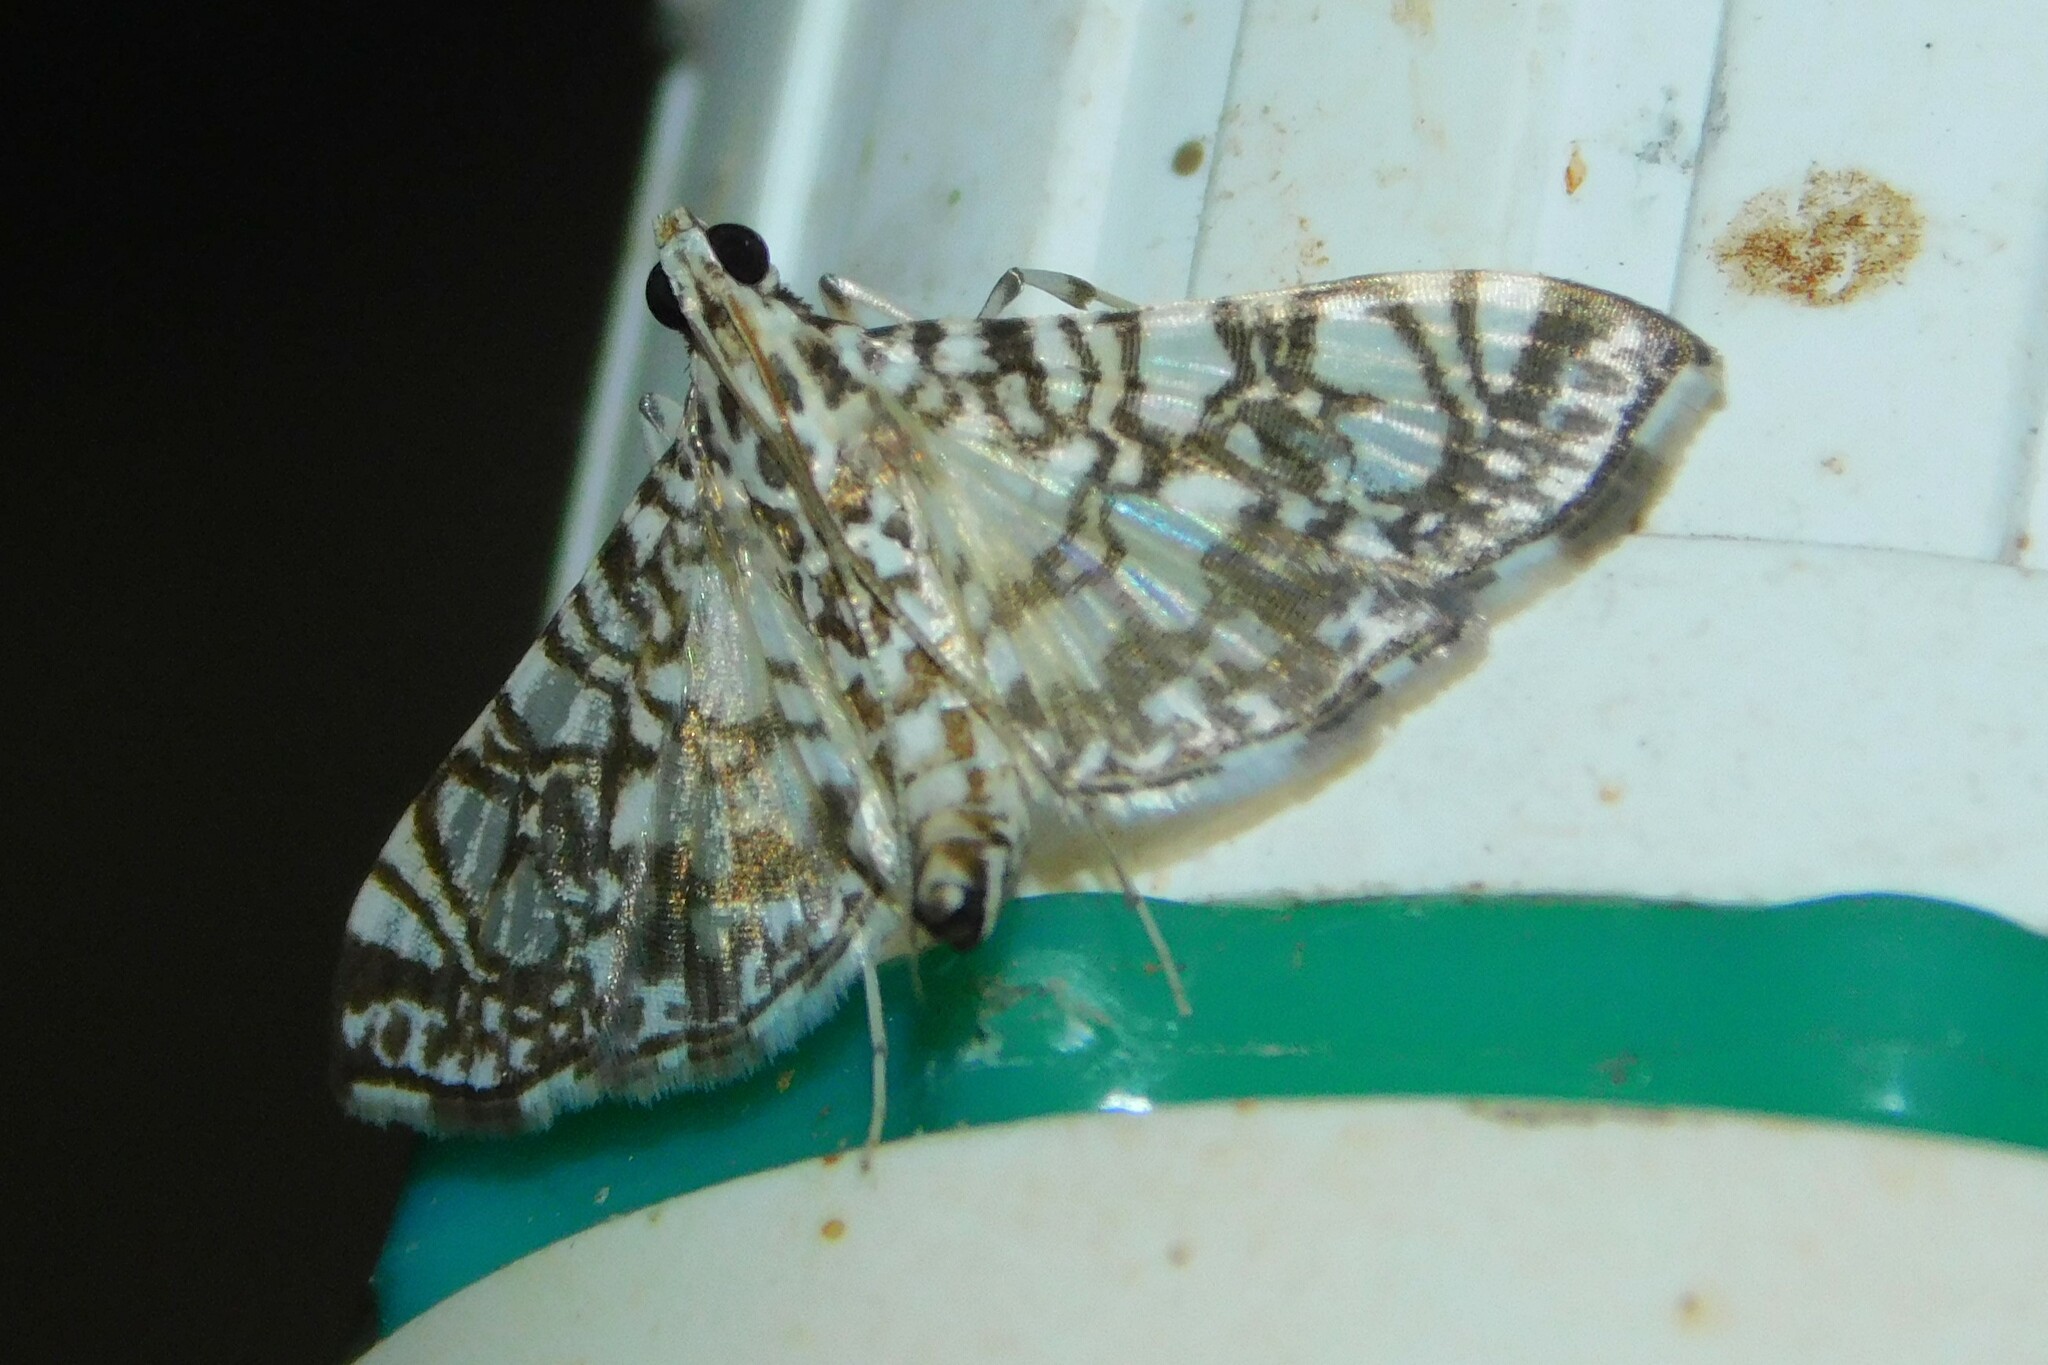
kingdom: Animalia
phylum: Arthropoda
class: Insecta
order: Lepidoptera
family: Crambidae
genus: Glyphodes
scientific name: Glyphodes onychinalis
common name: Swan plant moth
